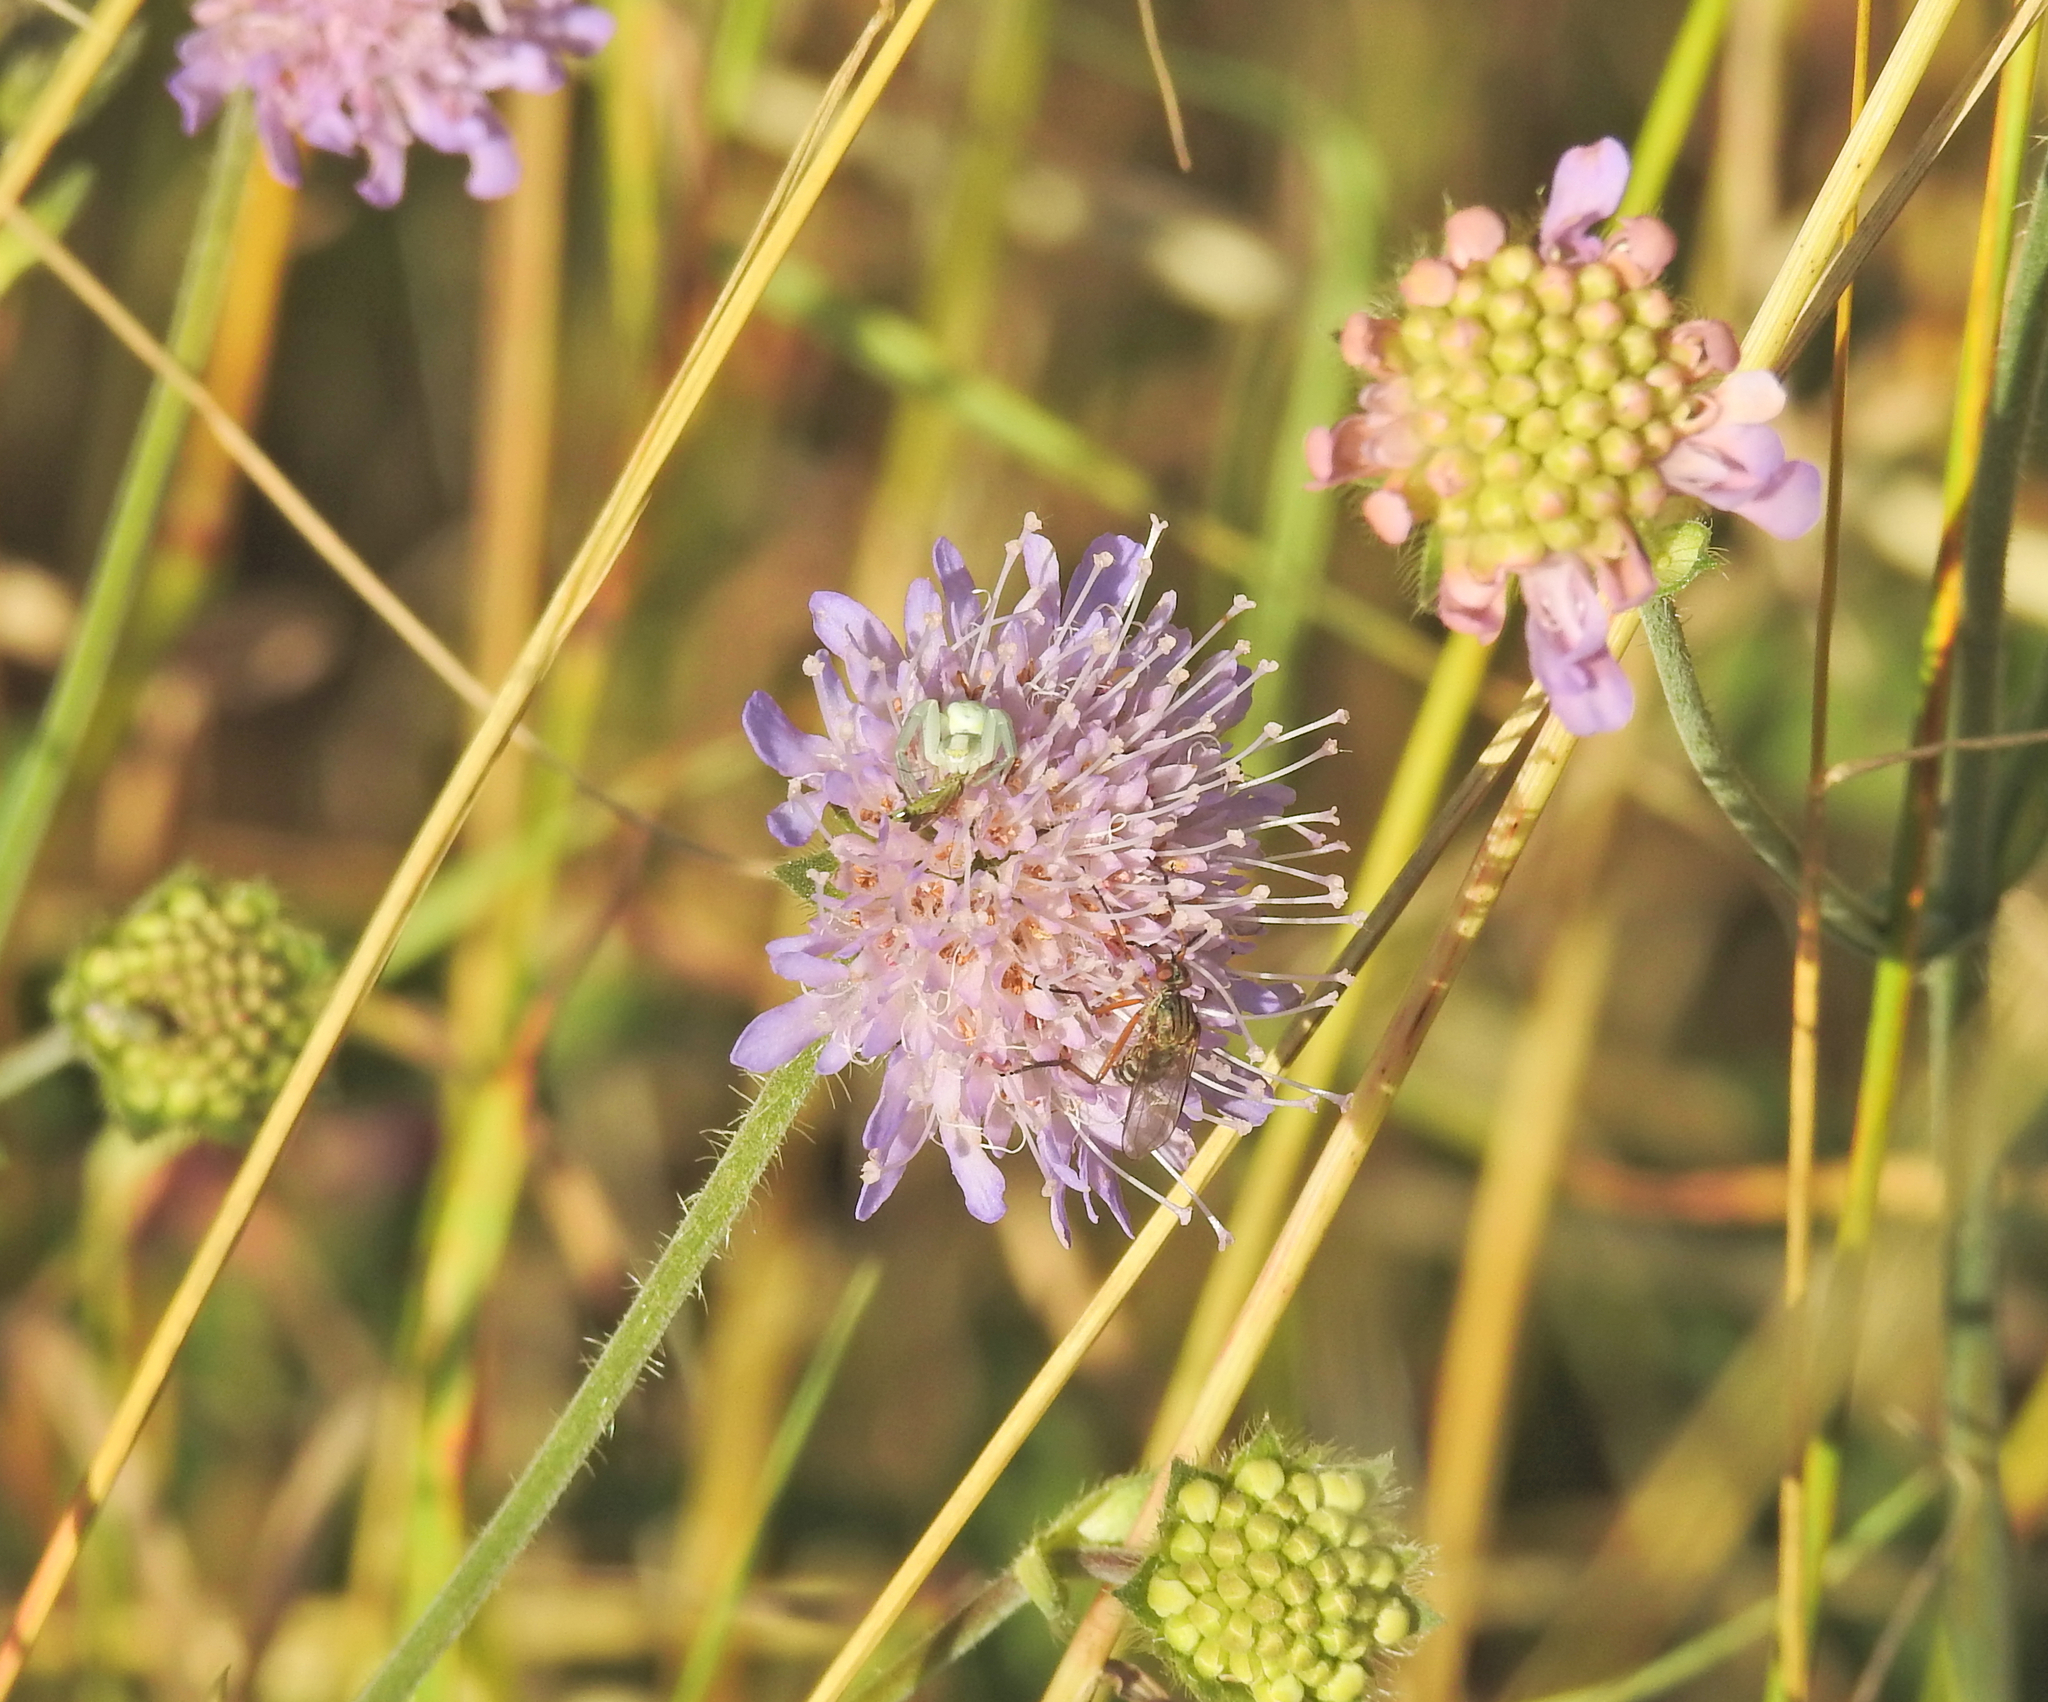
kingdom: Animalia
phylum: Arthropoda
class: Arachnida
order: Araneae
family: Thomisidae
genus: Misumena
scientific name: Misumena vatia
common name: Goldenrod crab spider
